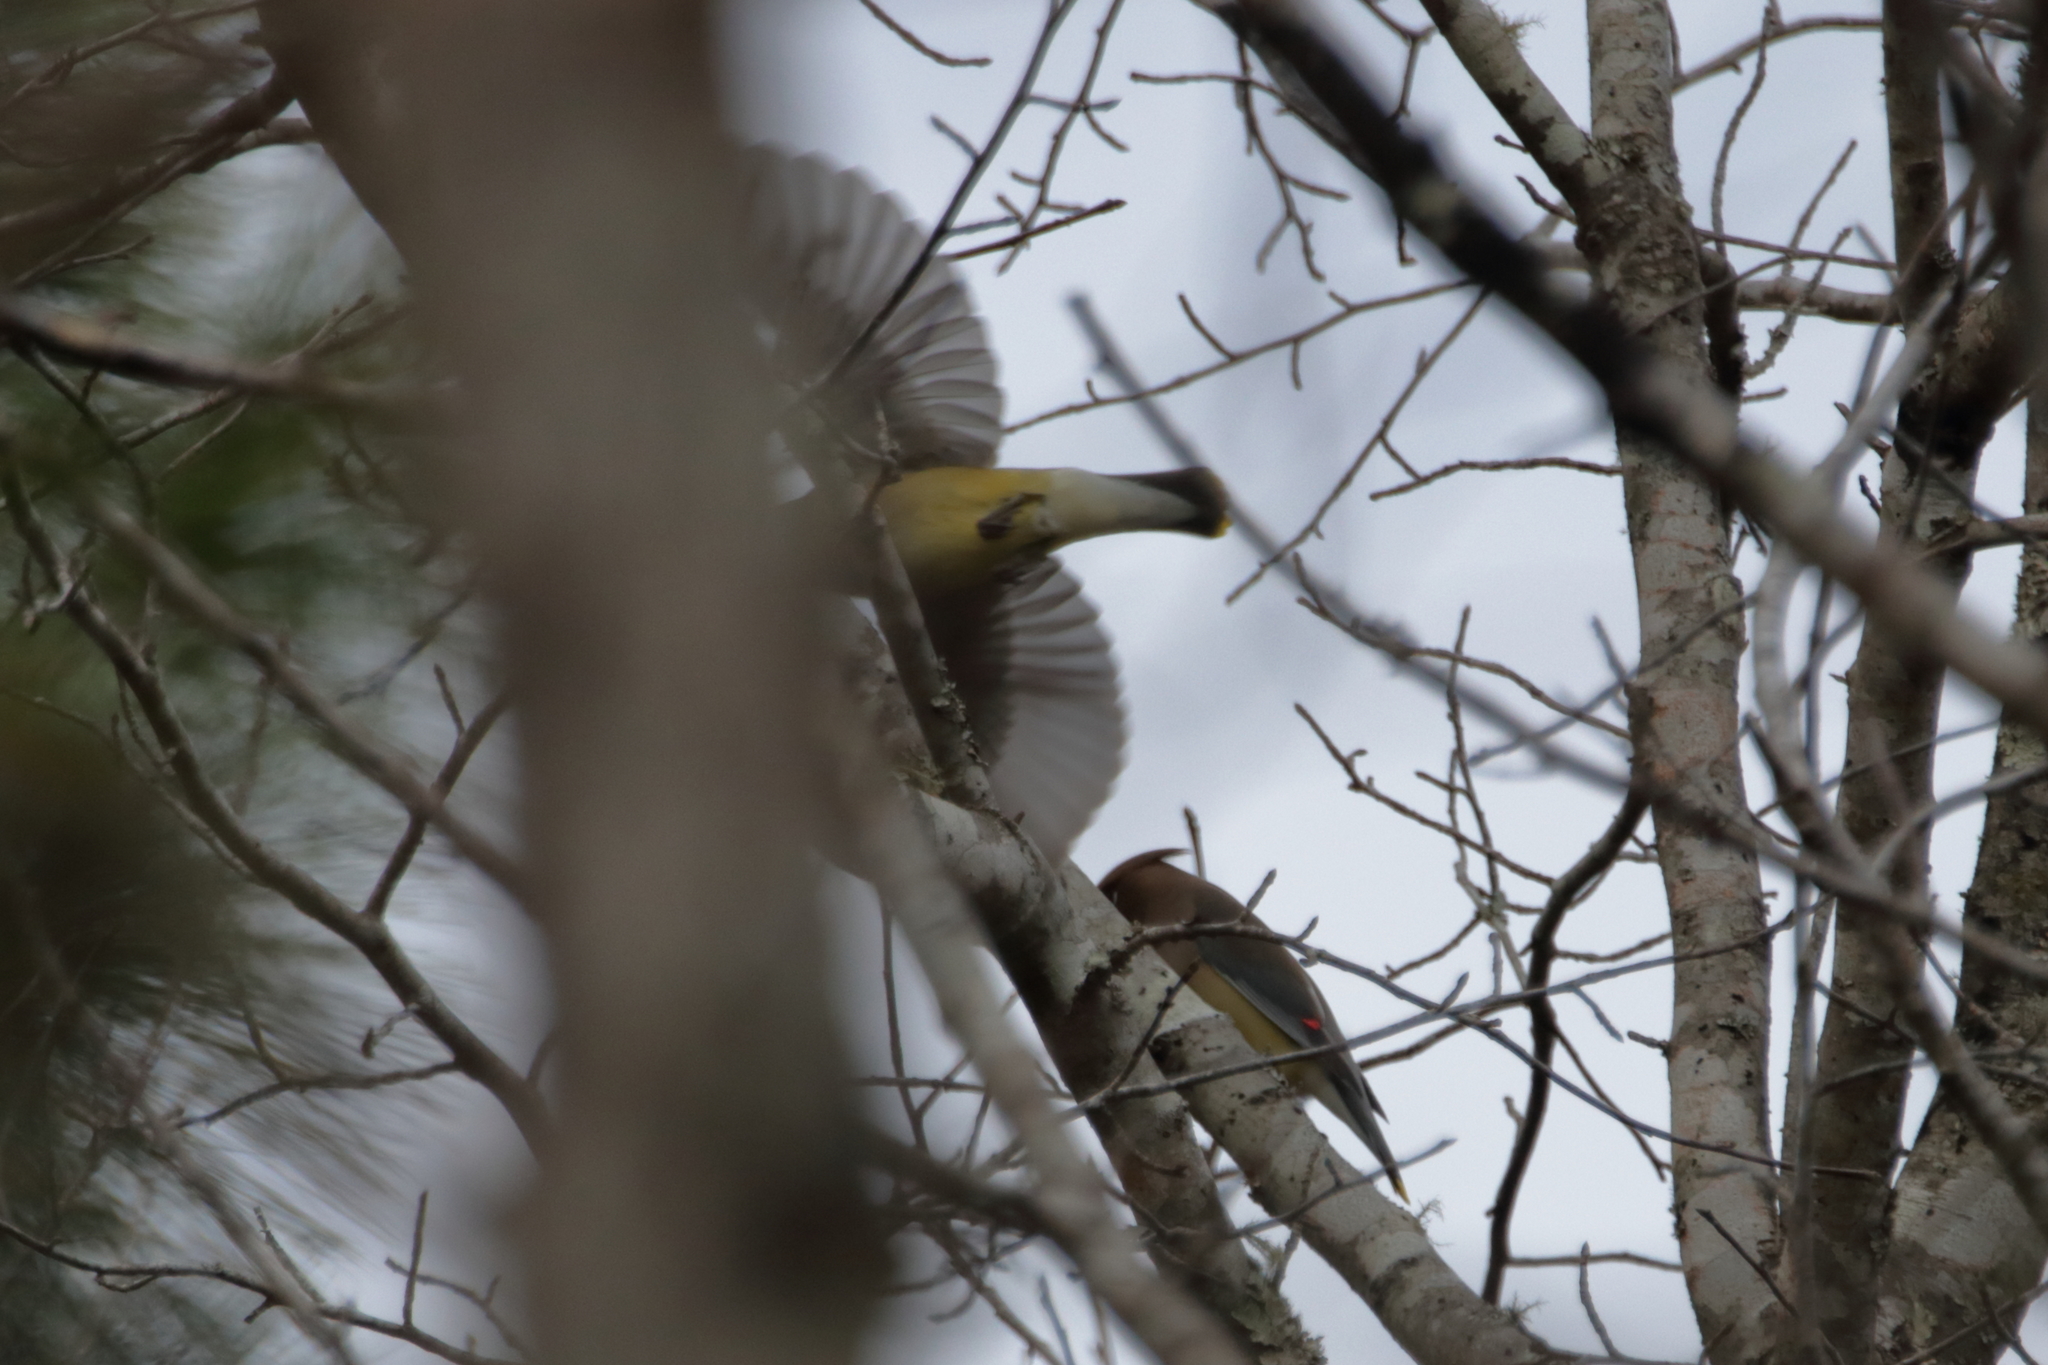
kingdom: Animalia
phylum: Chordata
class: Aves
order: Passeriformes
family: Bombycillidae
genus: Bombycilla
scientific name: Bombycilla cedrorum
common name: Cedar waxwing
